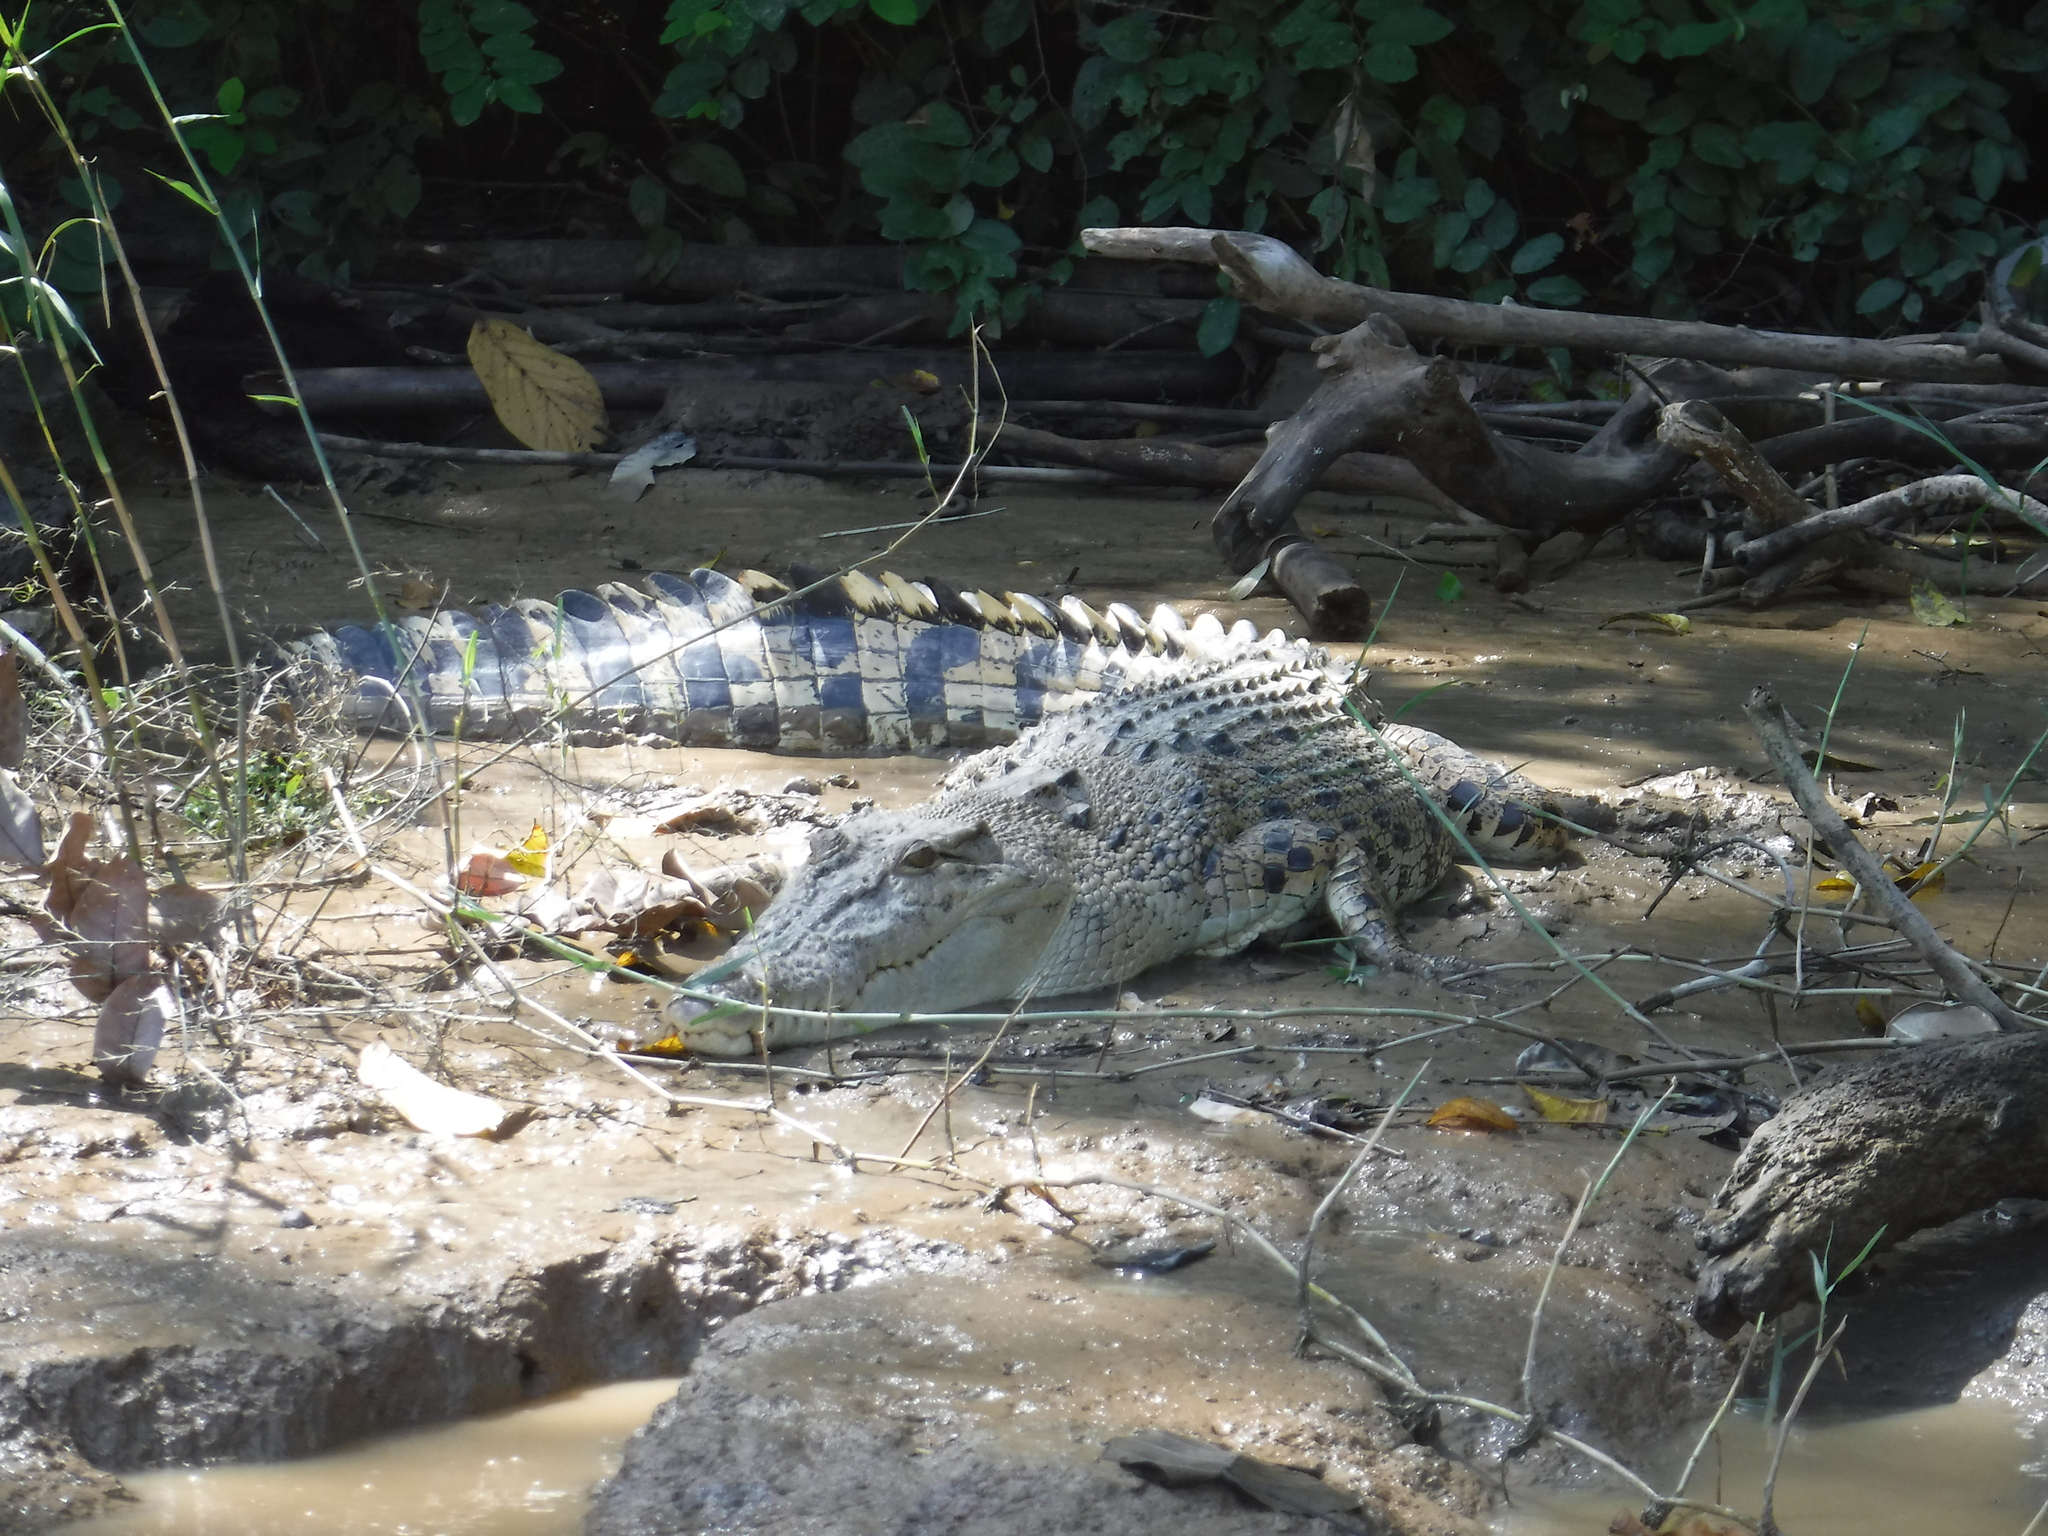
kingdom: Animalia
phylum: Chordata
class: Crocodylia
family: Crocodylidae
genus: Crocodylus
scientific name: Crocodylus porosus
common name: Saltwater crocodile
